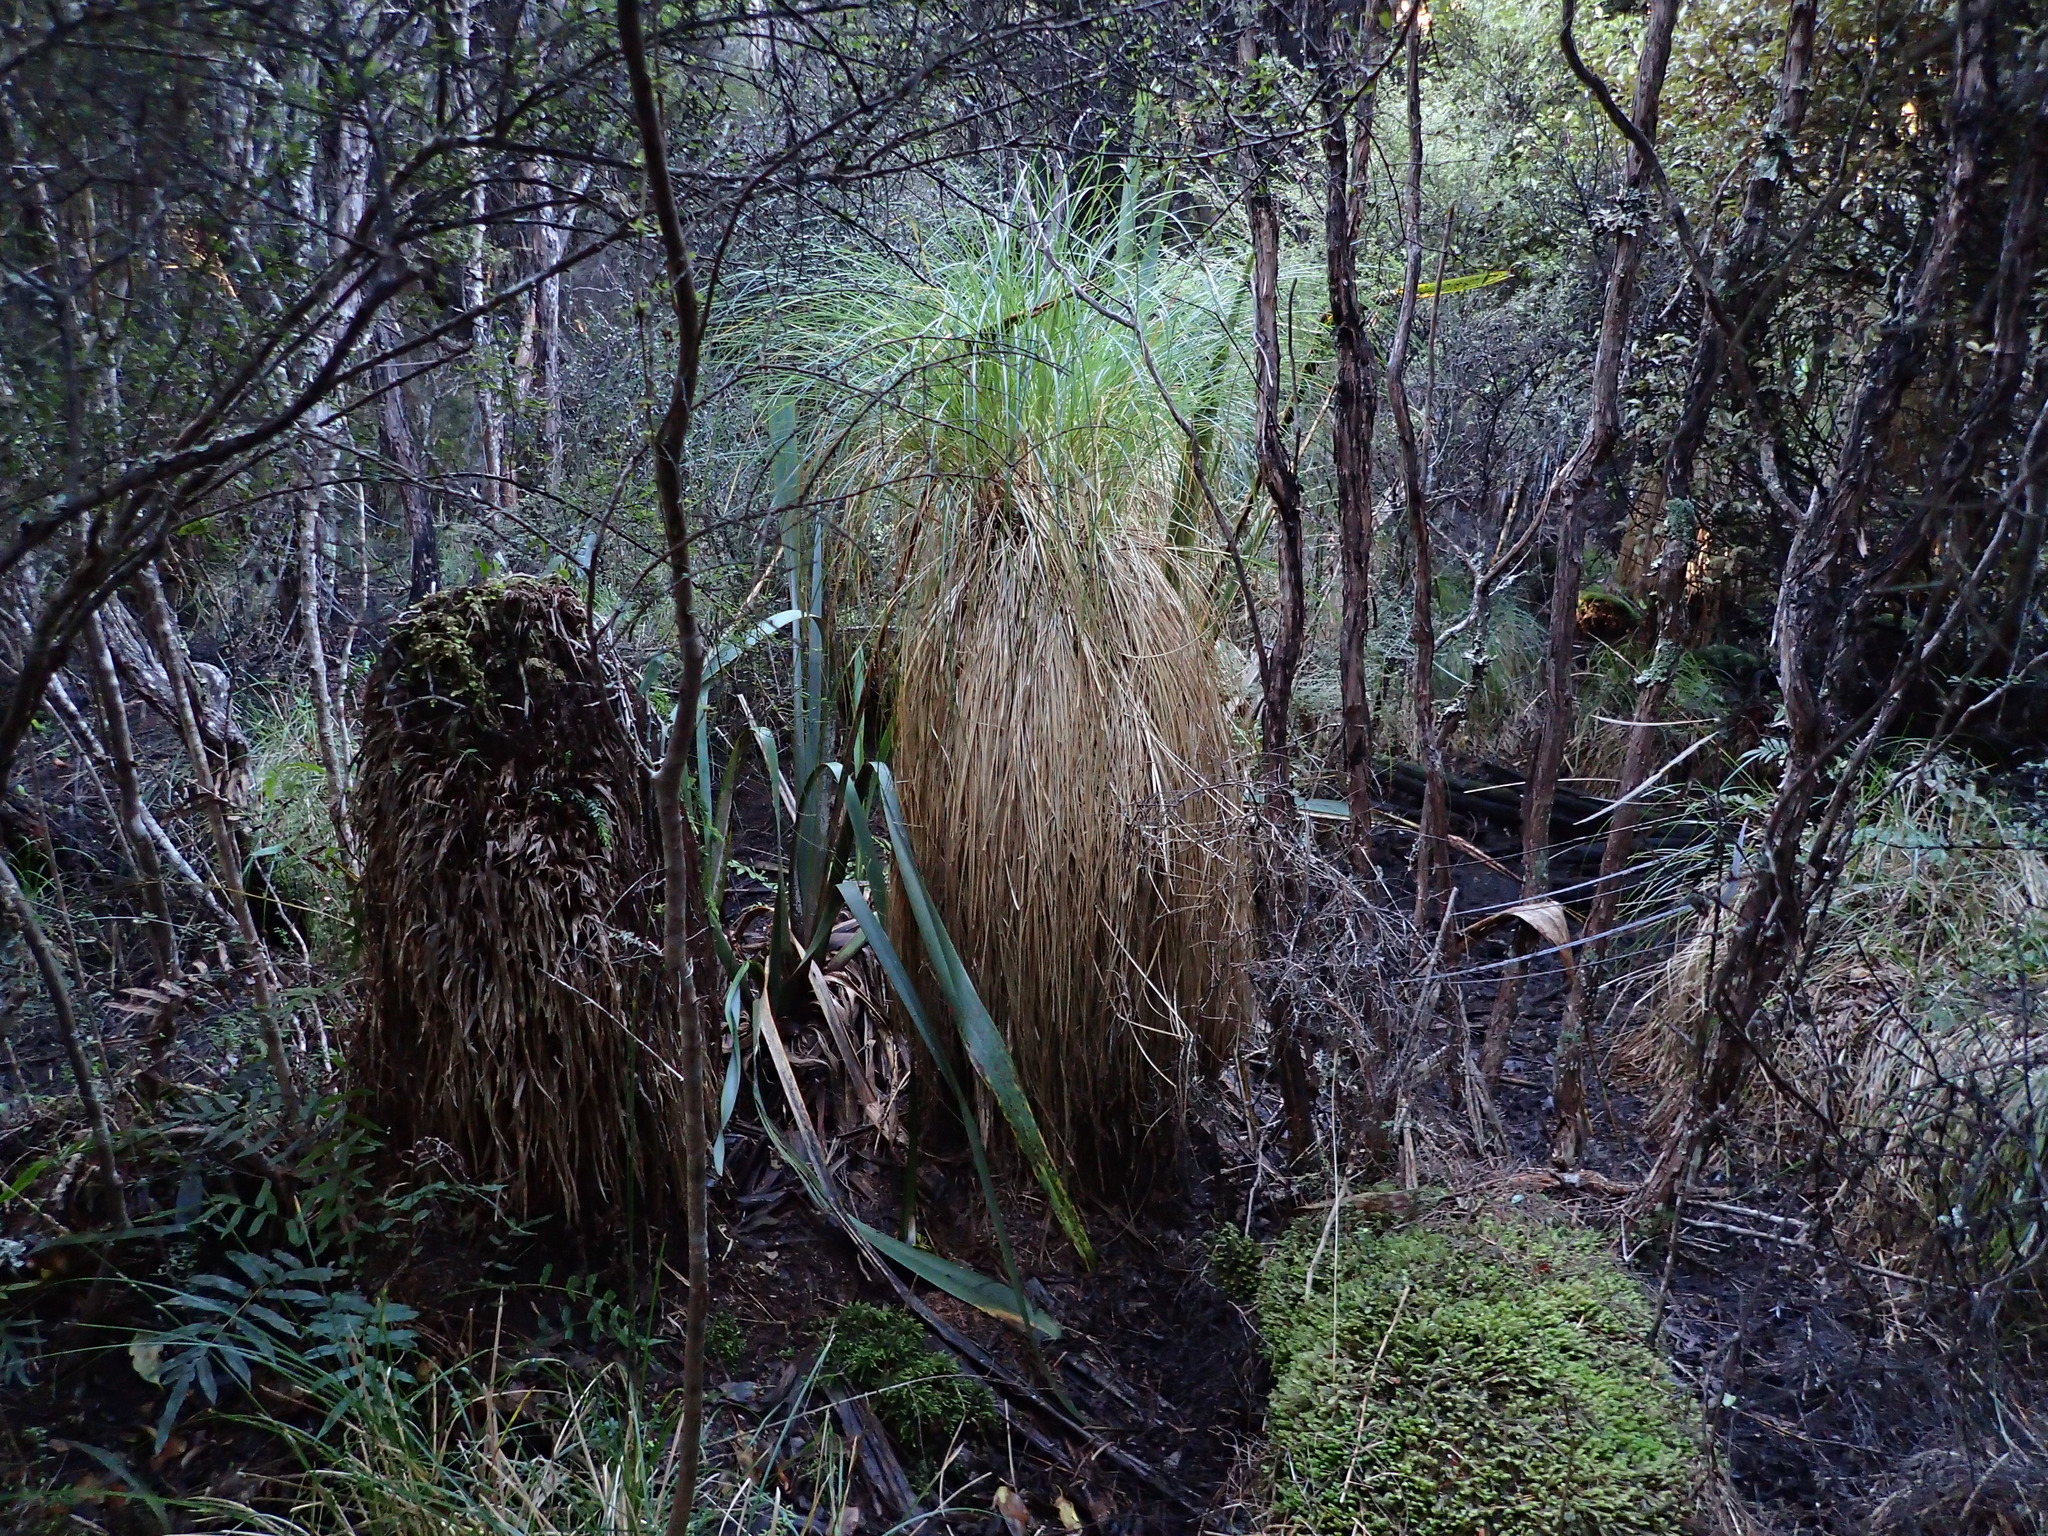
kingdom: Plantae
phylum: Tracheophyta
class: Liliopsida
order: Poales
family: Cyperaceae
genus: Carex
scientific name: Carex secta
